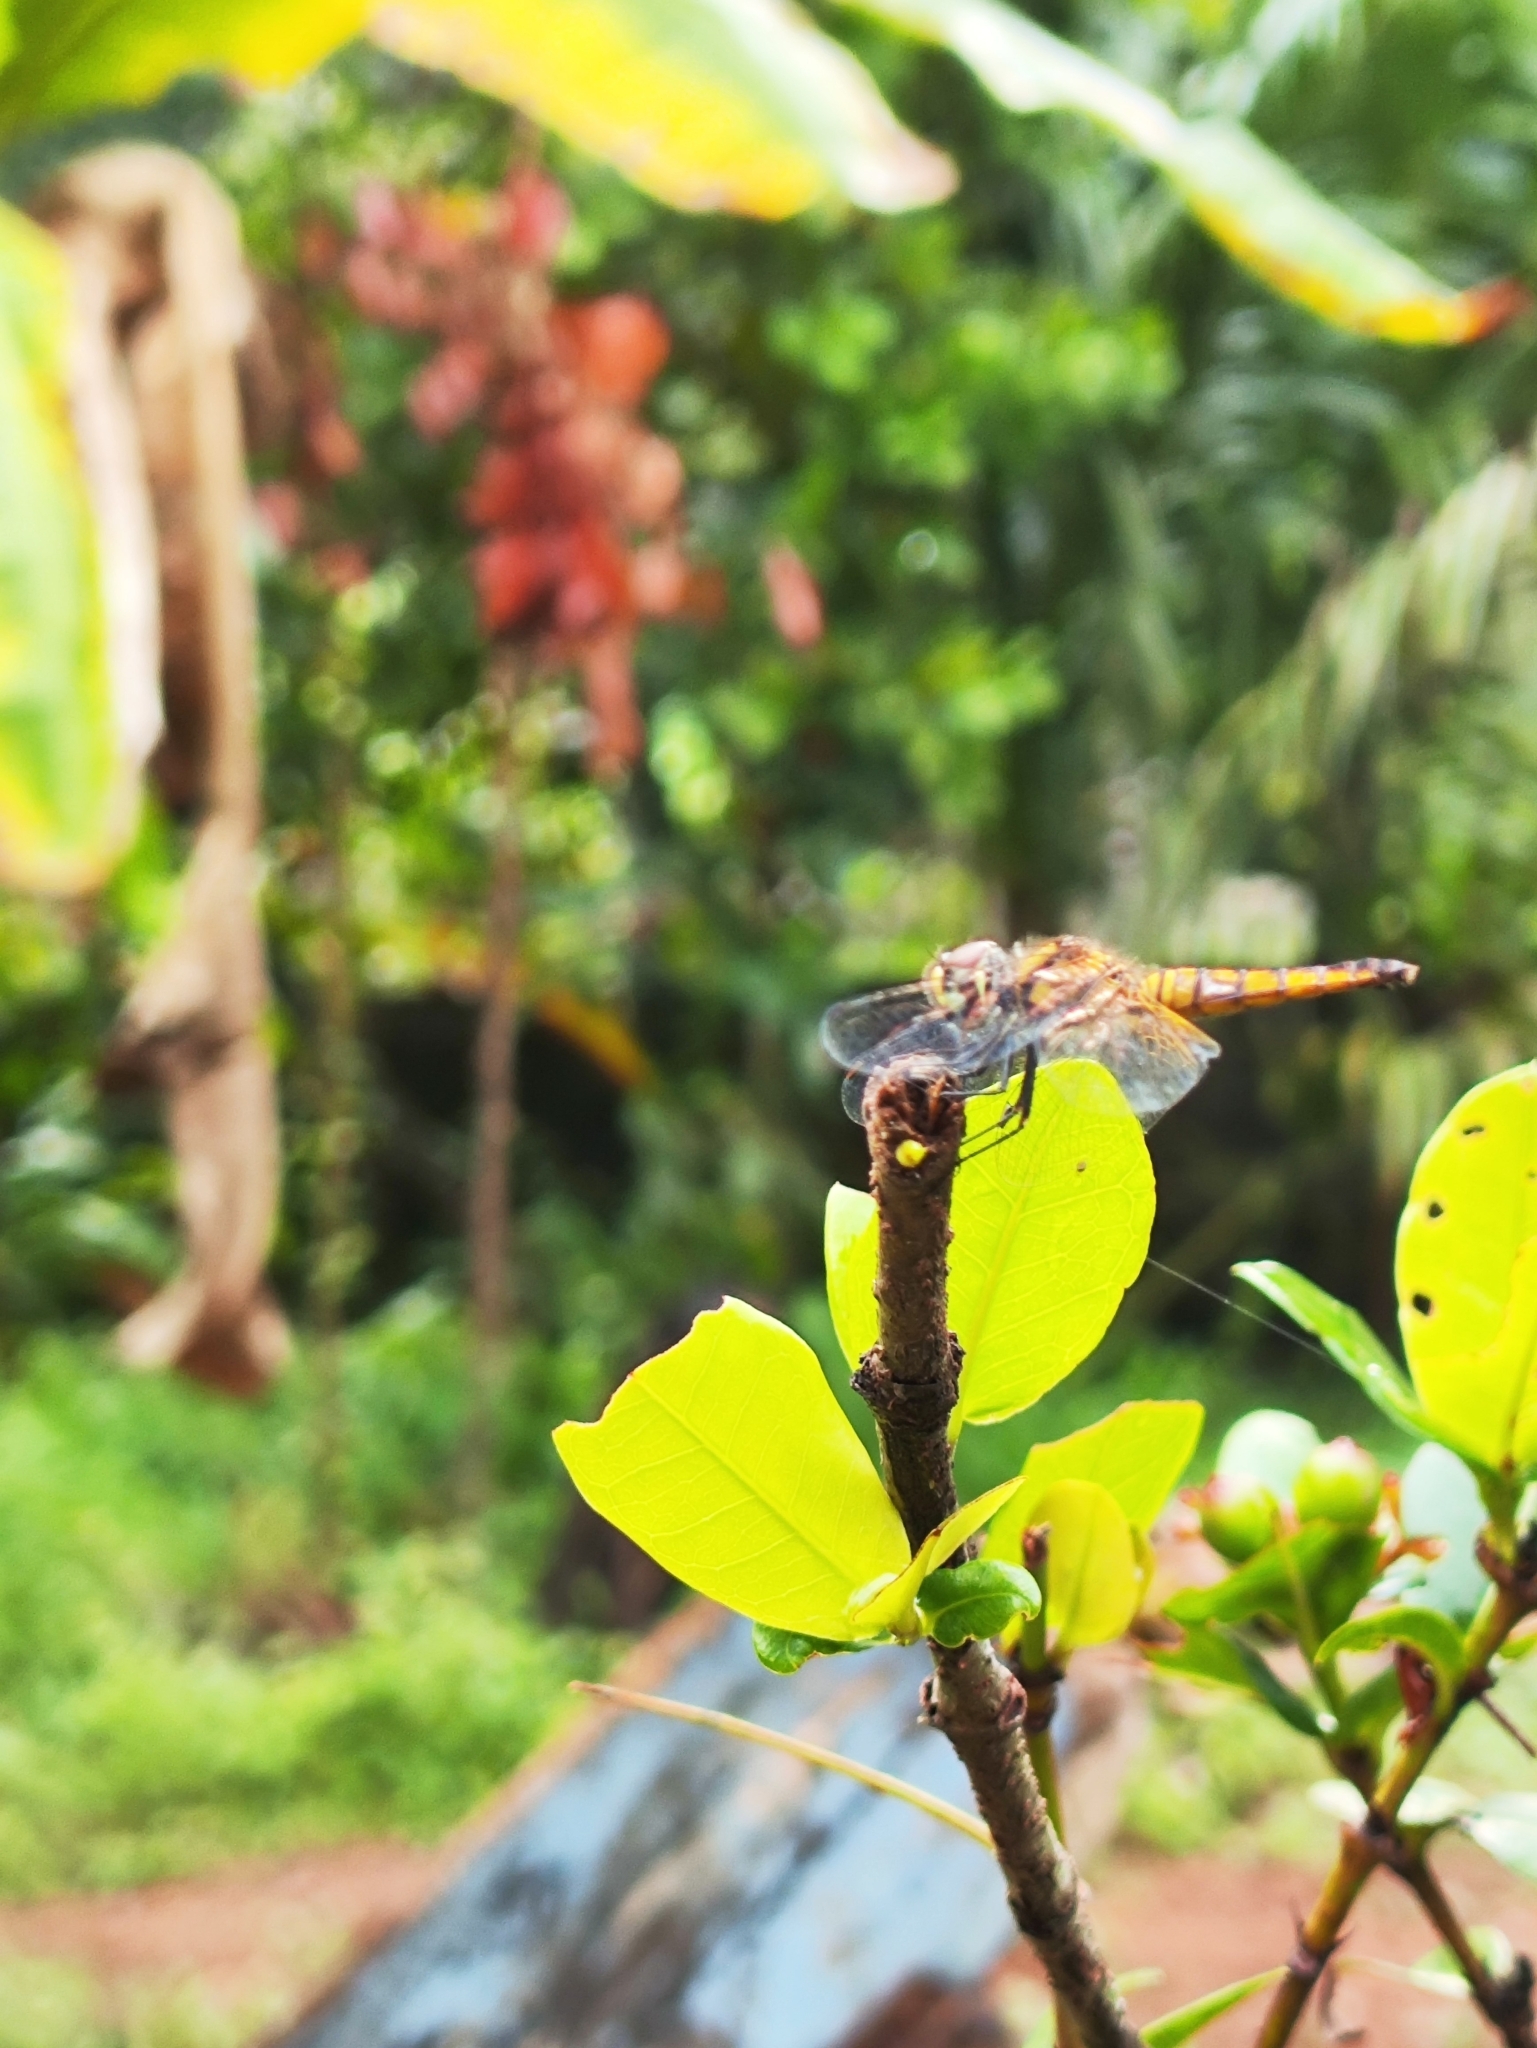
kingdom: Animalia
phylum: Arthropoda
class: Insecta
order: Odonata
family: Libellulidae
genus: Aethriamanta
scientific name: Aethriamanta brevipennis
